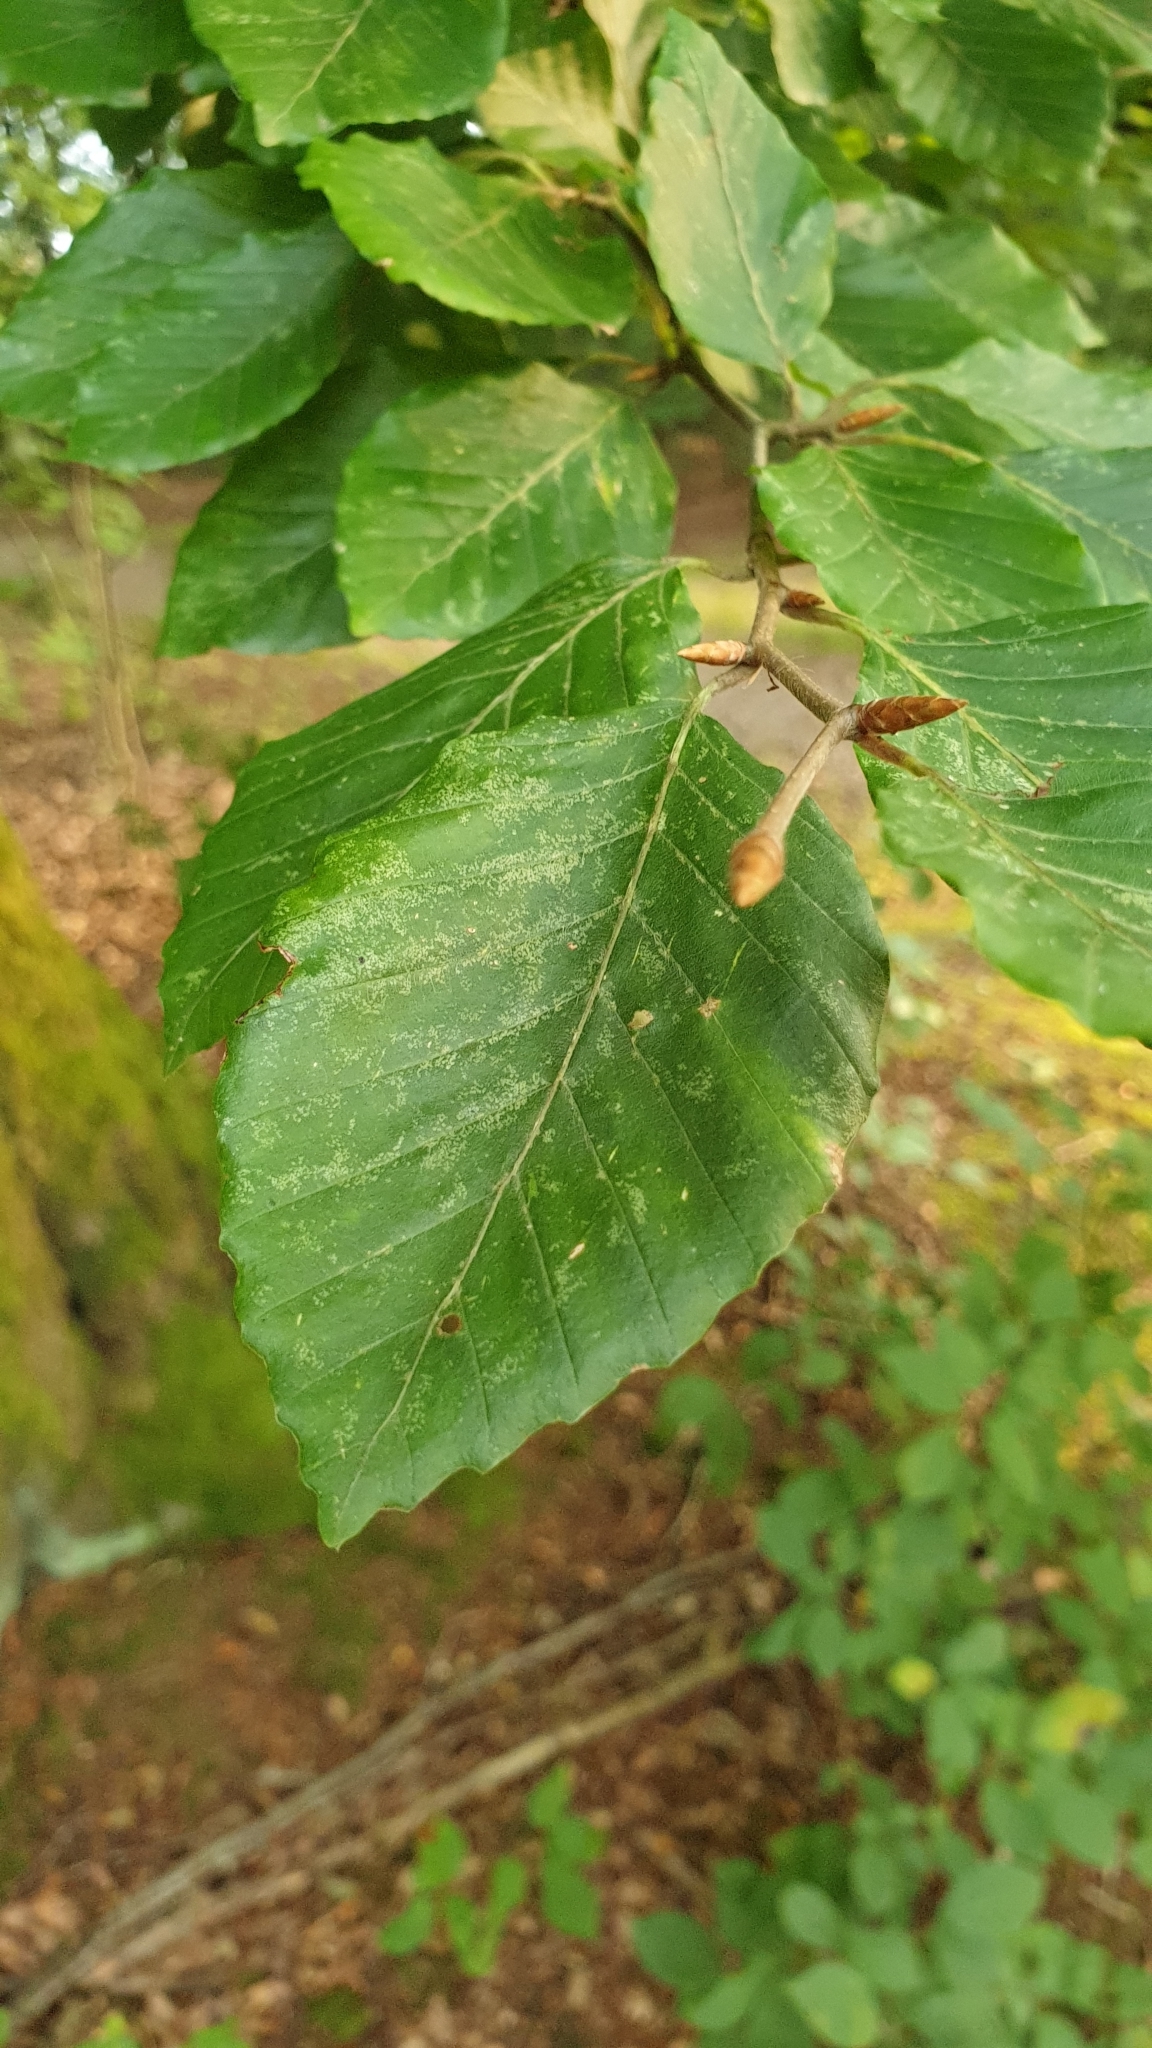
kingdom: Plantae
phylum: Tracheophyta
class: Magnoliopsida
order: Fagales
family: Fagaceae
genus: Fagus
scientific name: Fagus sylvatica
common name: Beech
